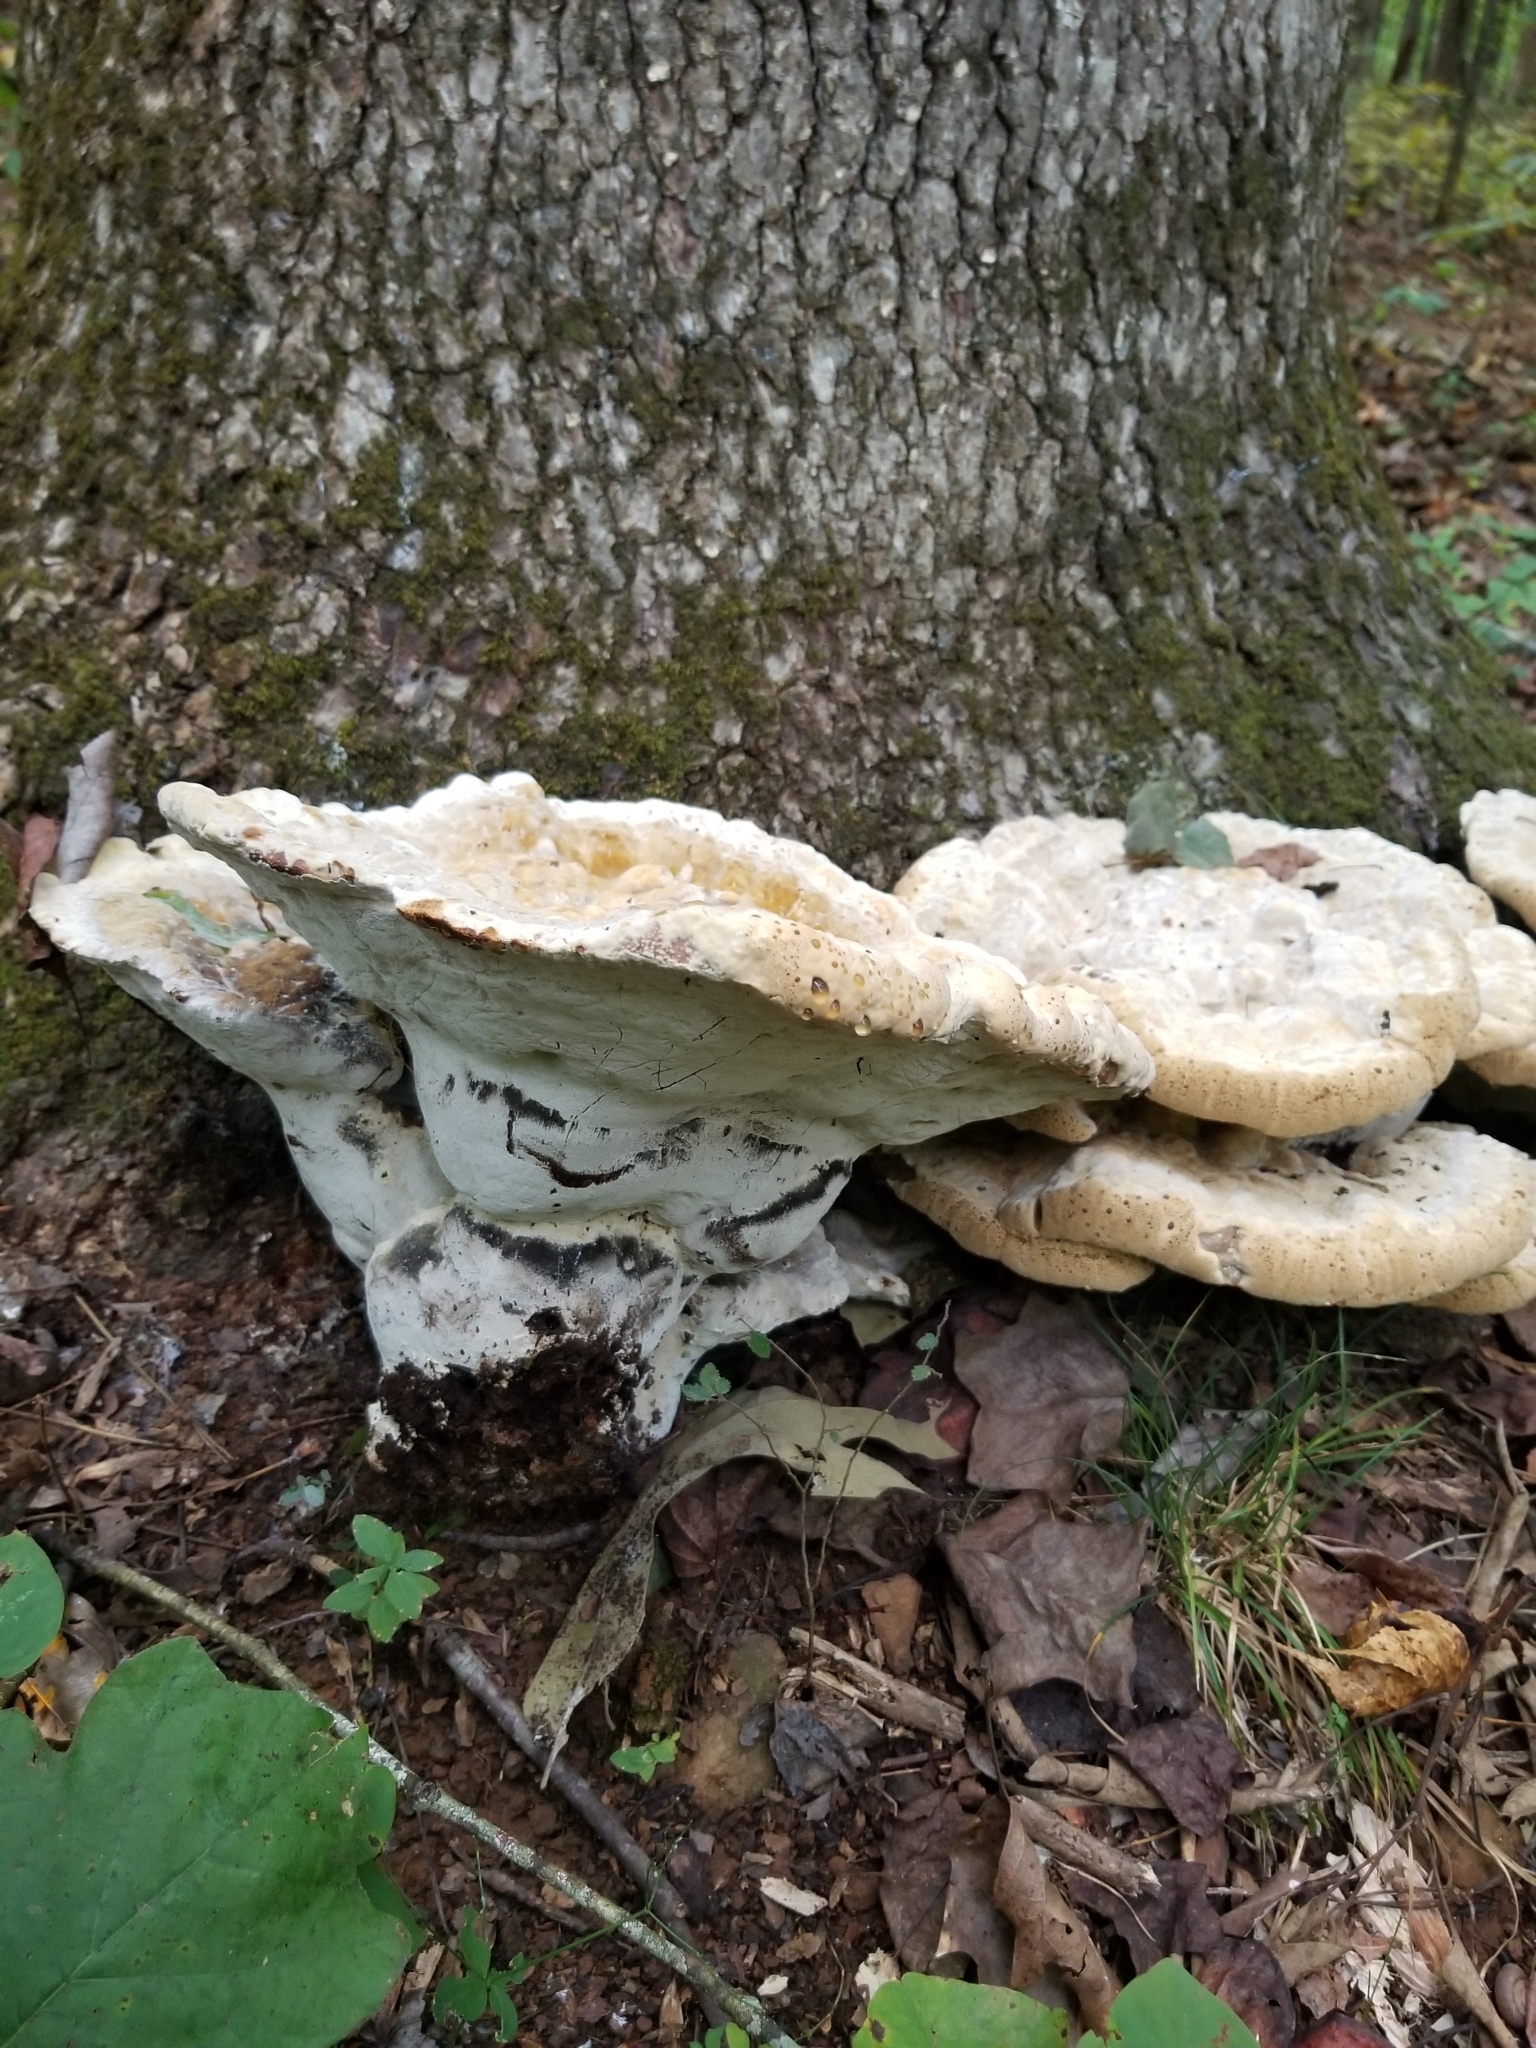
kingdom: Fungi
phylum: Basidiomycota
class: Agaricomycetes
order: Hymenochaetales
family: Hymenochaetaceae
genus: Pseudoinonotus
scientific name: Pseudoinonotus dryadeus
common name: Oak bracket
